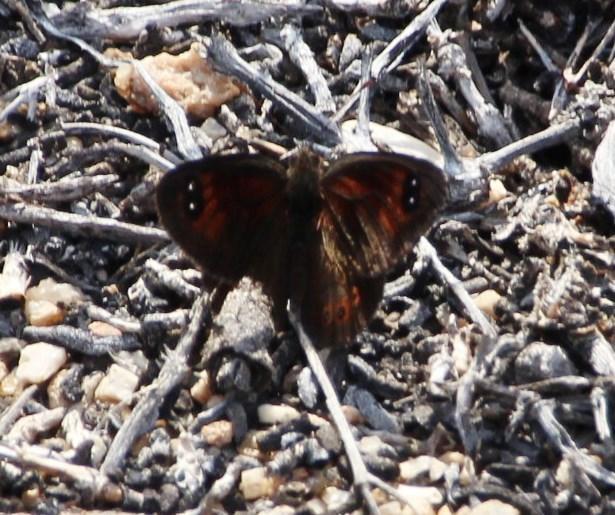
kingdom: Animalia
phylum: Arthropoda
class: Insecta
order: Lepidoptera
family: Nymphalidae
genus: Tarsocera
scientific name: Tarsocera dicksoni
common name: Dickson's widow
